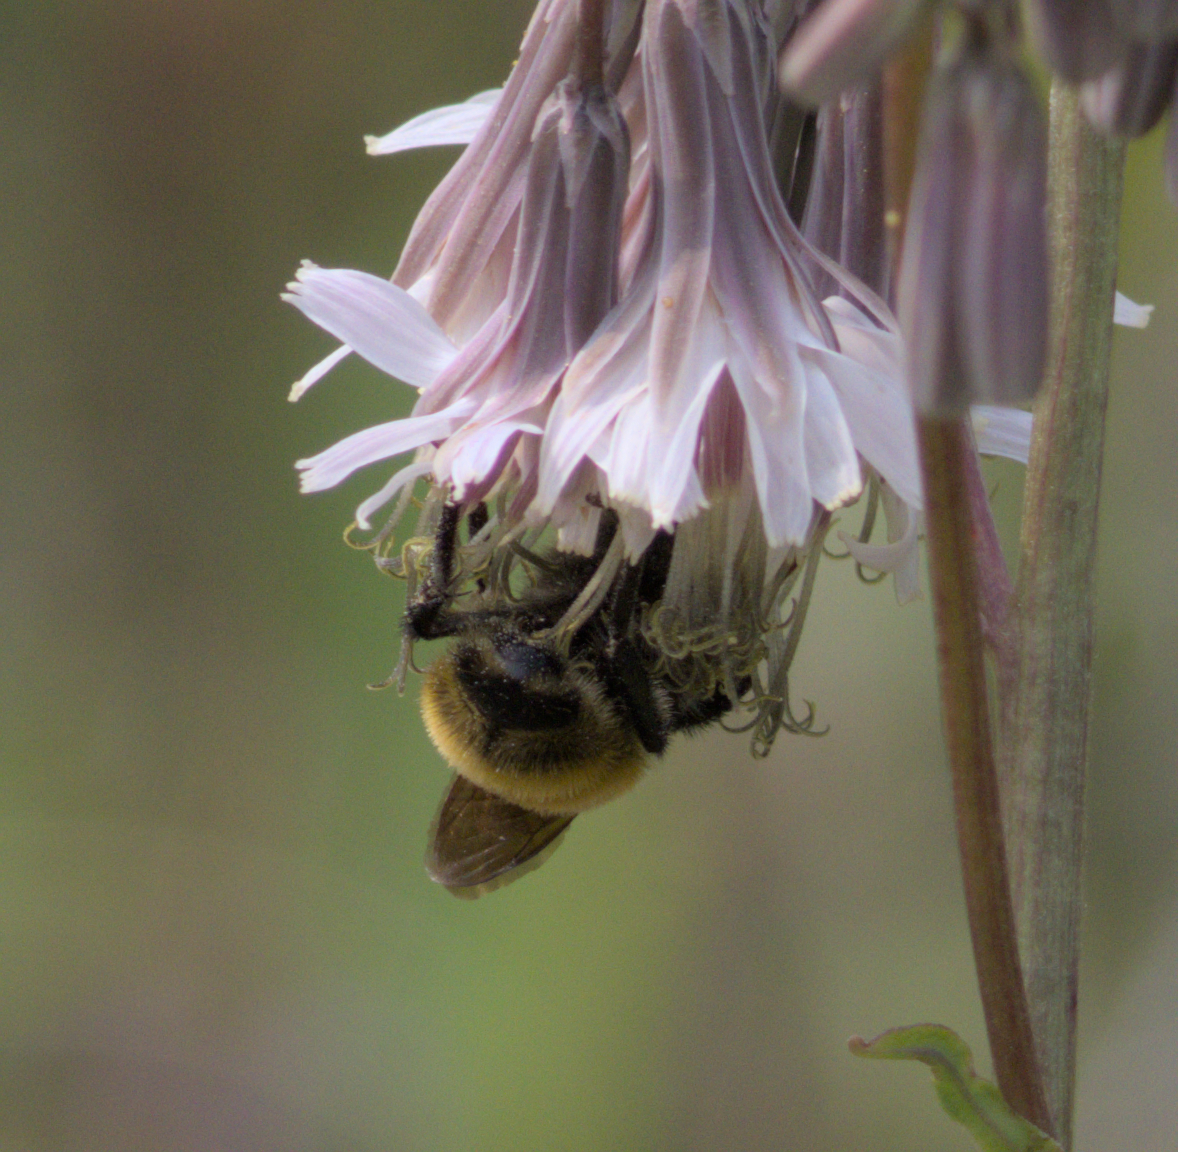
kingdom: Animalia
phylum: Arthropoda
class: Insecta
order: Hymenoptera
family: Apidae
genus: Bombus
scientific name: Bombus
